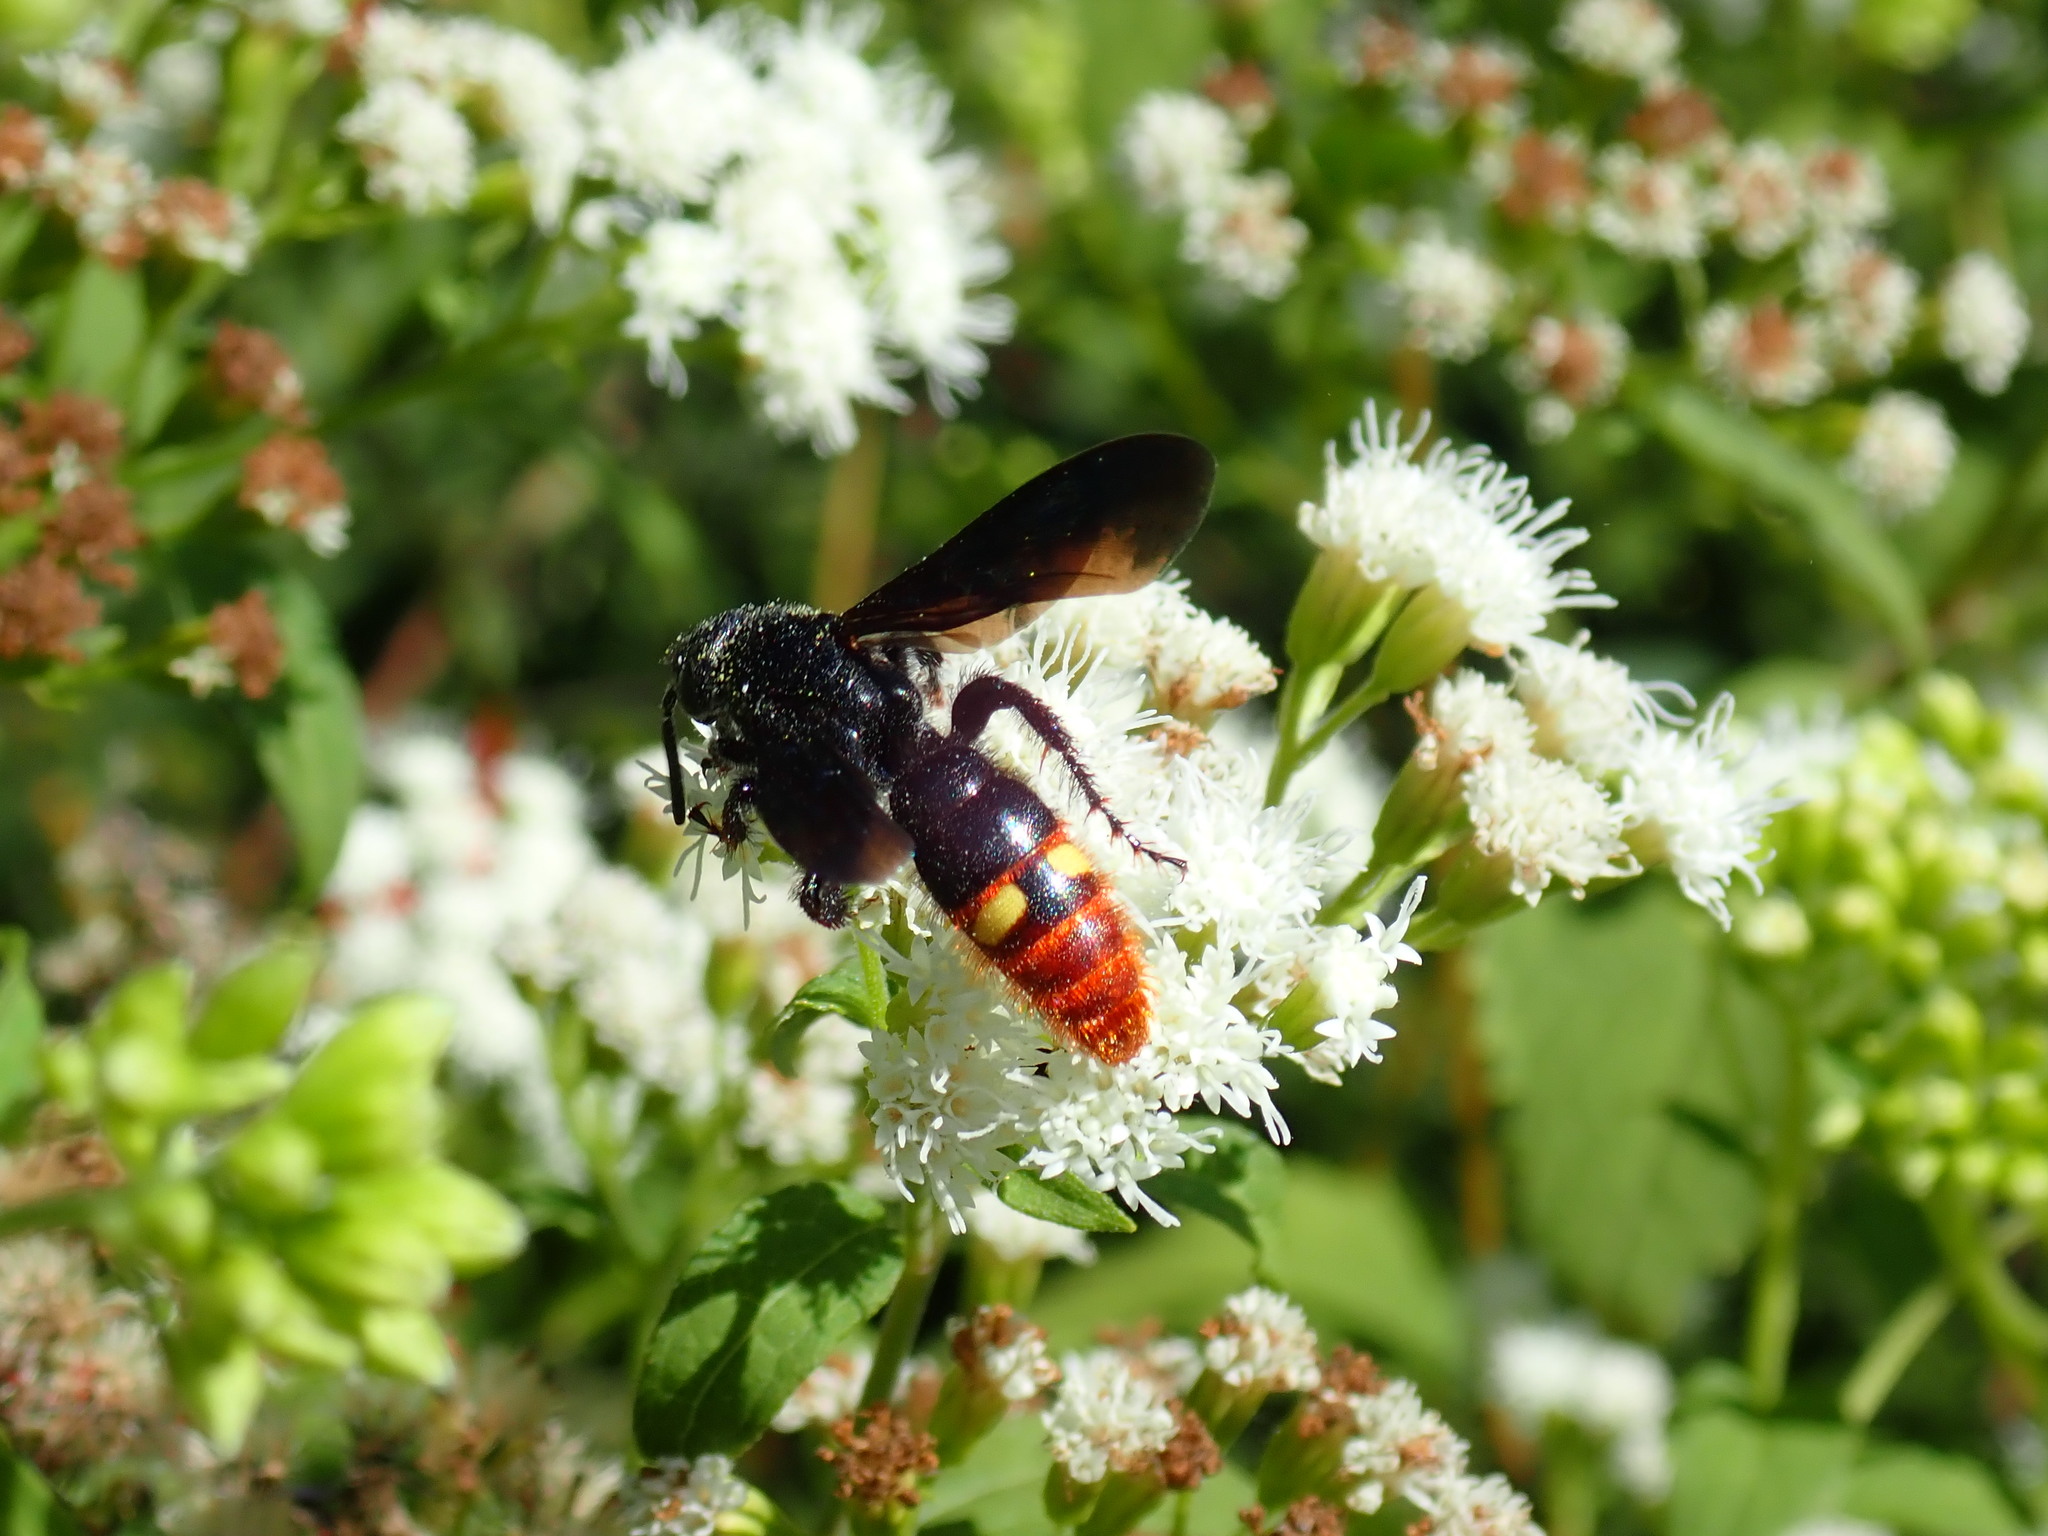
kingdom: Animalia
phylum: Arthropoda
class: Insecta
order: Hymenoptera
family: Scoliidae
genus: Scolia
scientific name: Scolia dubia
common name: Blue-winged scoliid wasp
